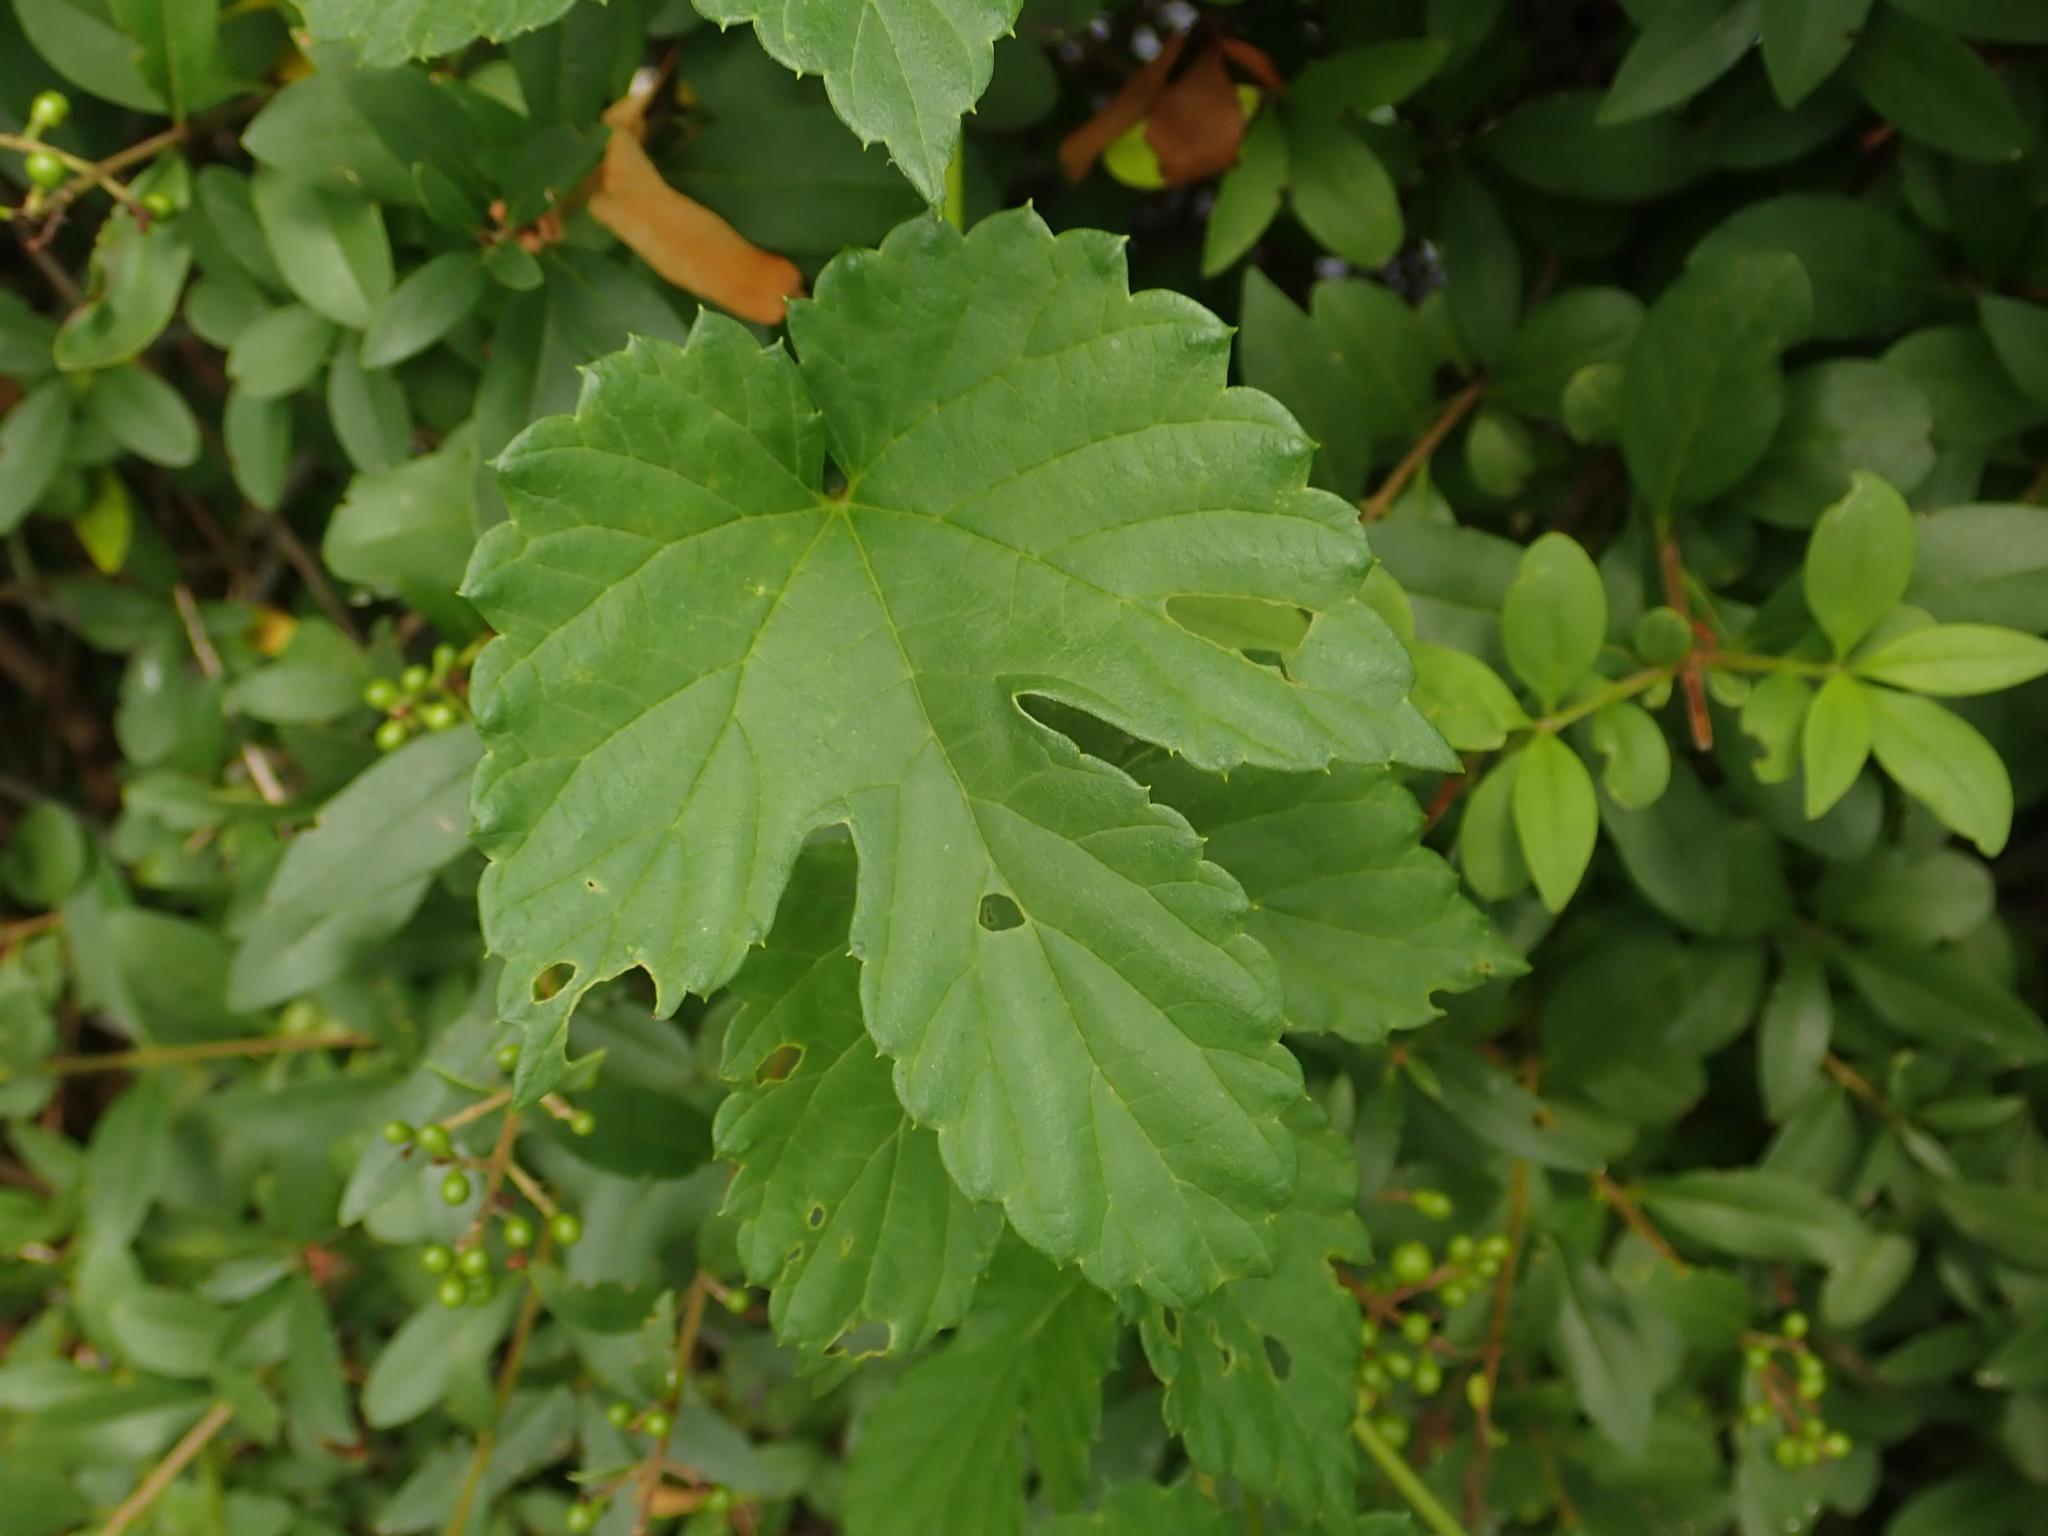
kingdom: Plantae
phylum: Tracheophyta
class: Magnoliopsida
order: Rosales
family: Cannabaceae
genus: Humulus
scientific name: Humulus lupulus
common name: Hop
